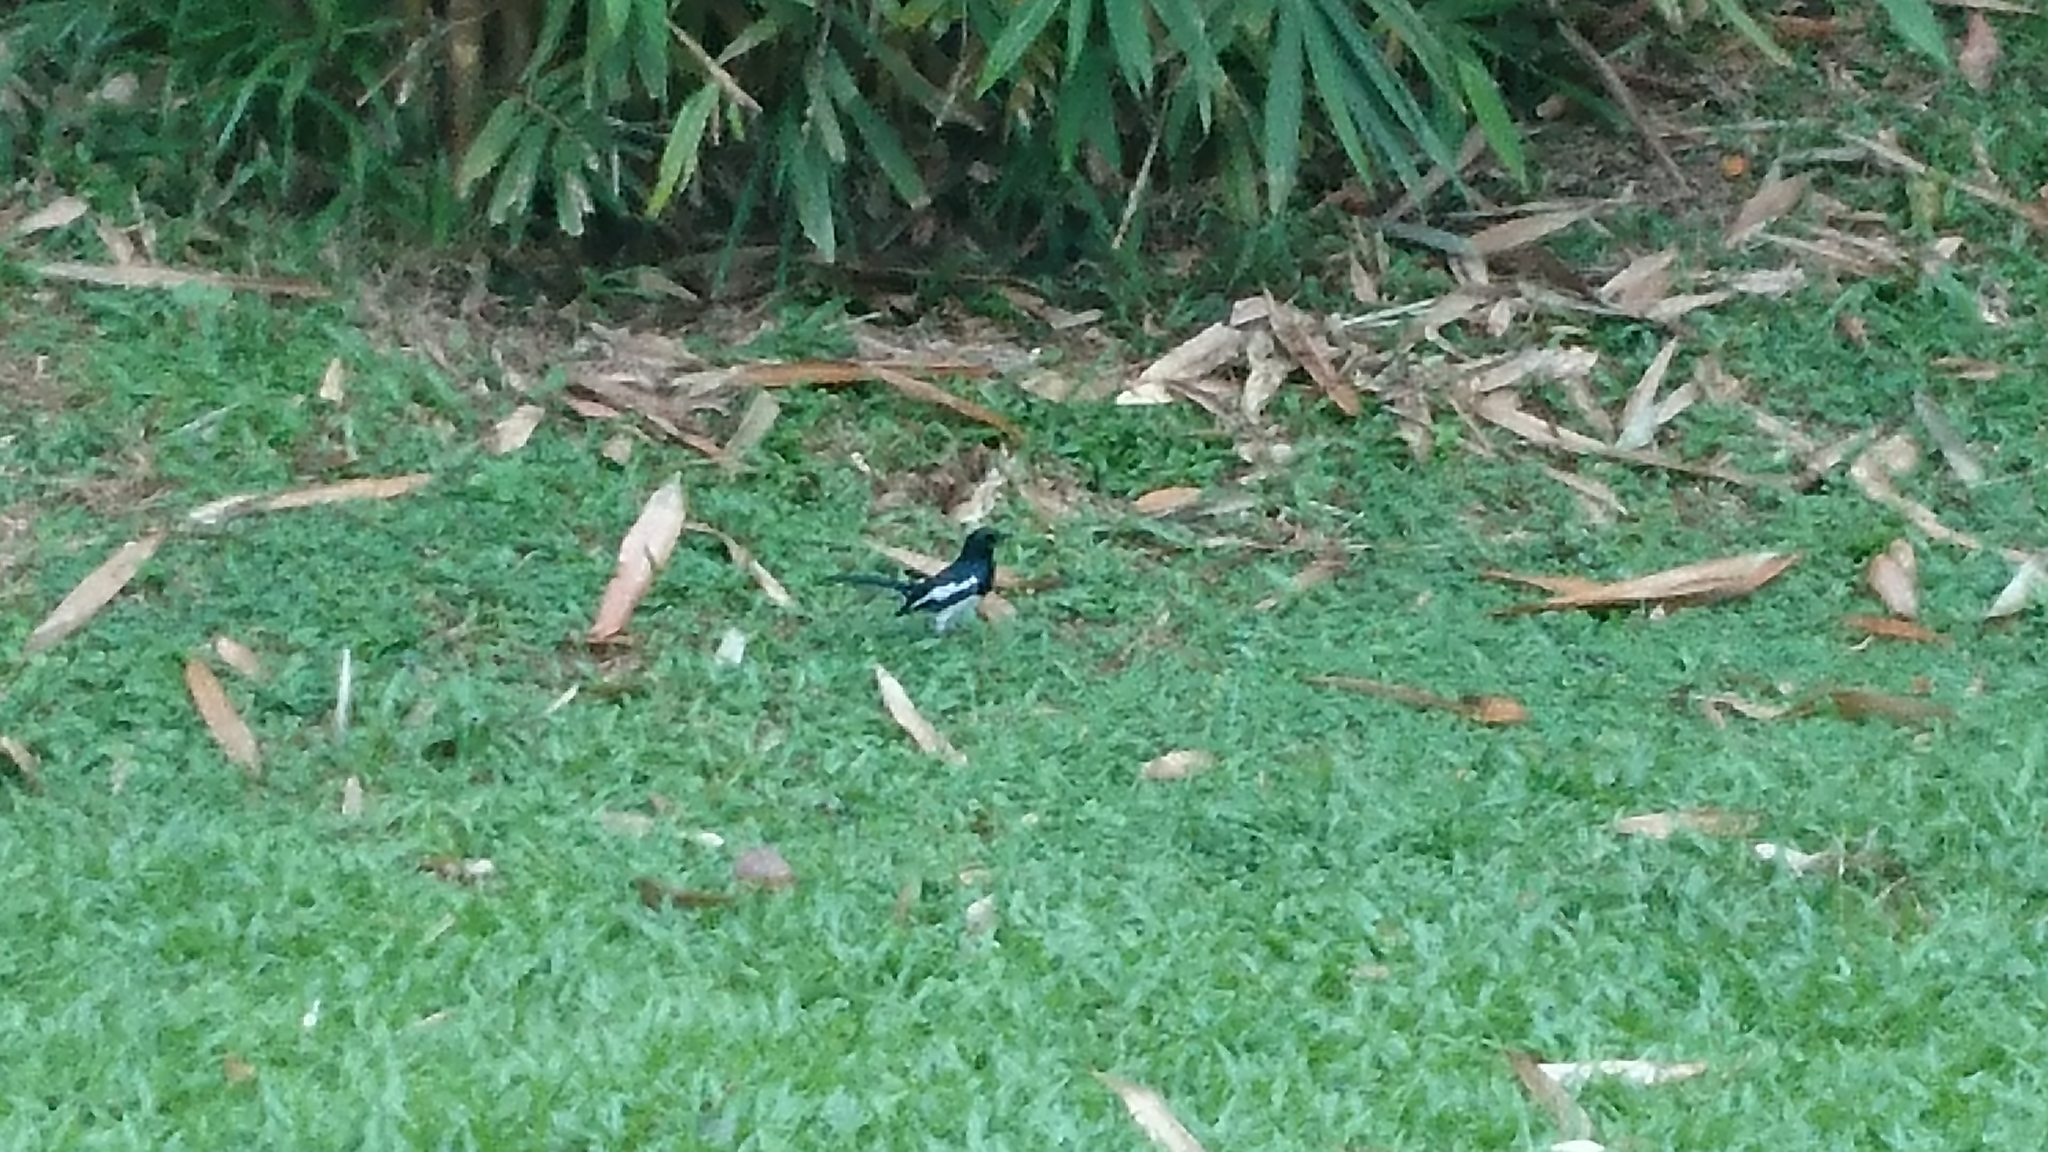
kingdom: Animalia
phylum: Chordata
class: Aves
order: Passeriformes
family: Muscicapidae
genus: Copsychus
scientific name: Copsychus saularis
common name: Oriental magpie-robin
